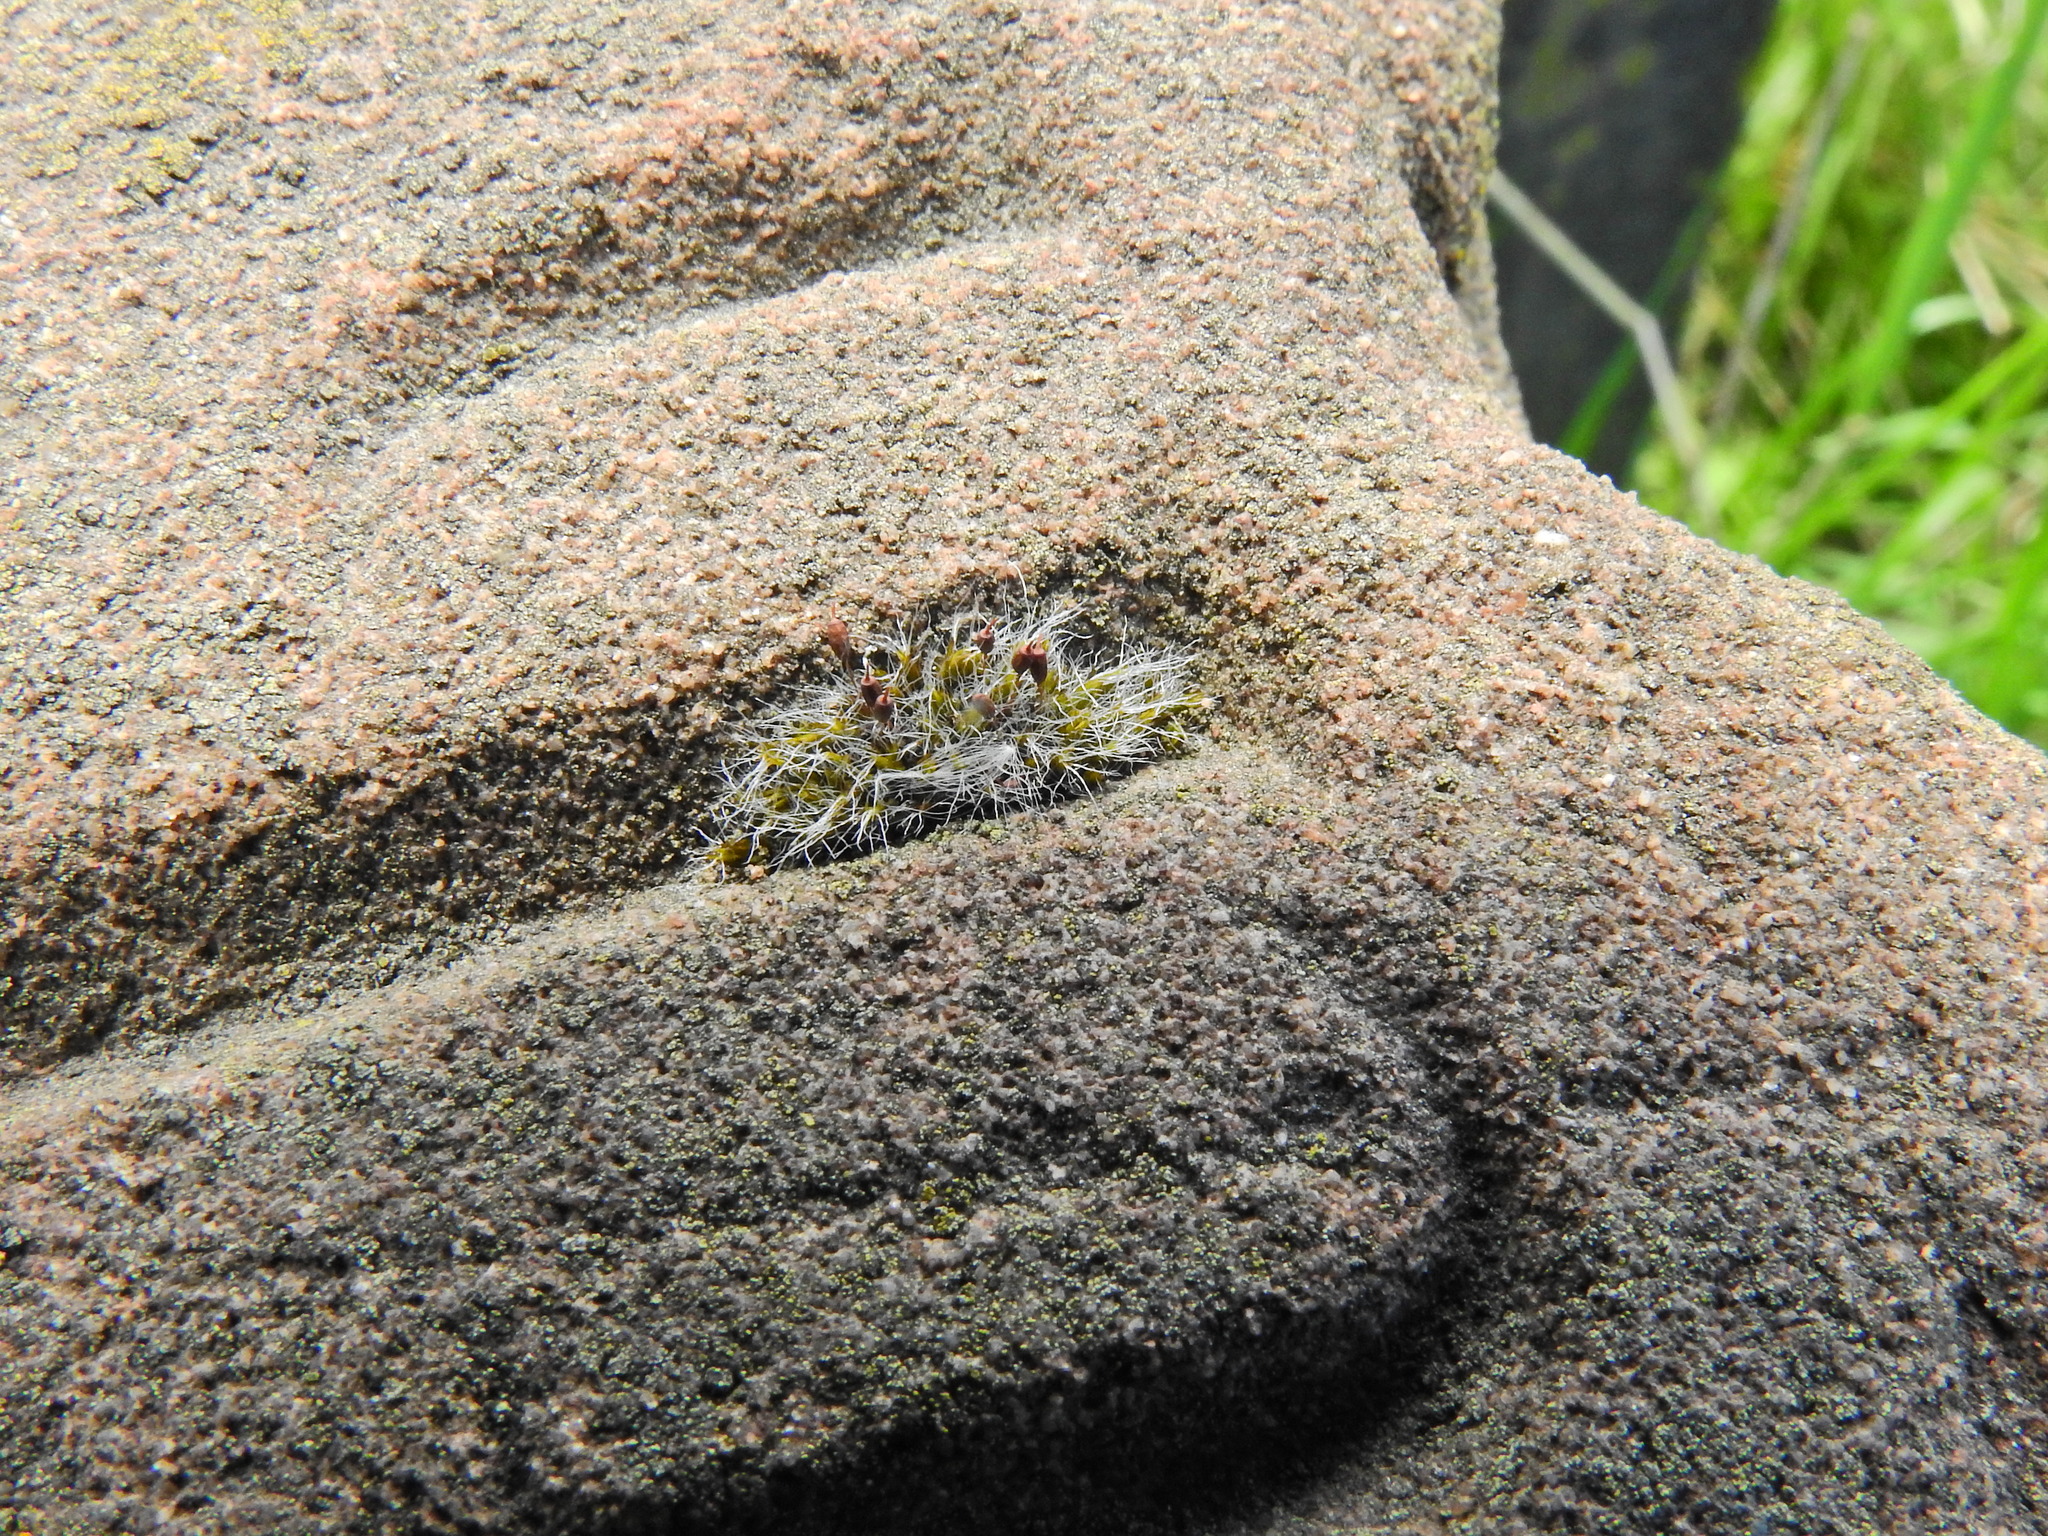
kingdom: Plantae
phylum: Bryophyta
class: Bryopsida
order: Grimmiales
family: Grimmiaceae
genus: Grimmia
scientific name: Grimmia pulvinata
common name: Grey-cushioned grimmia
